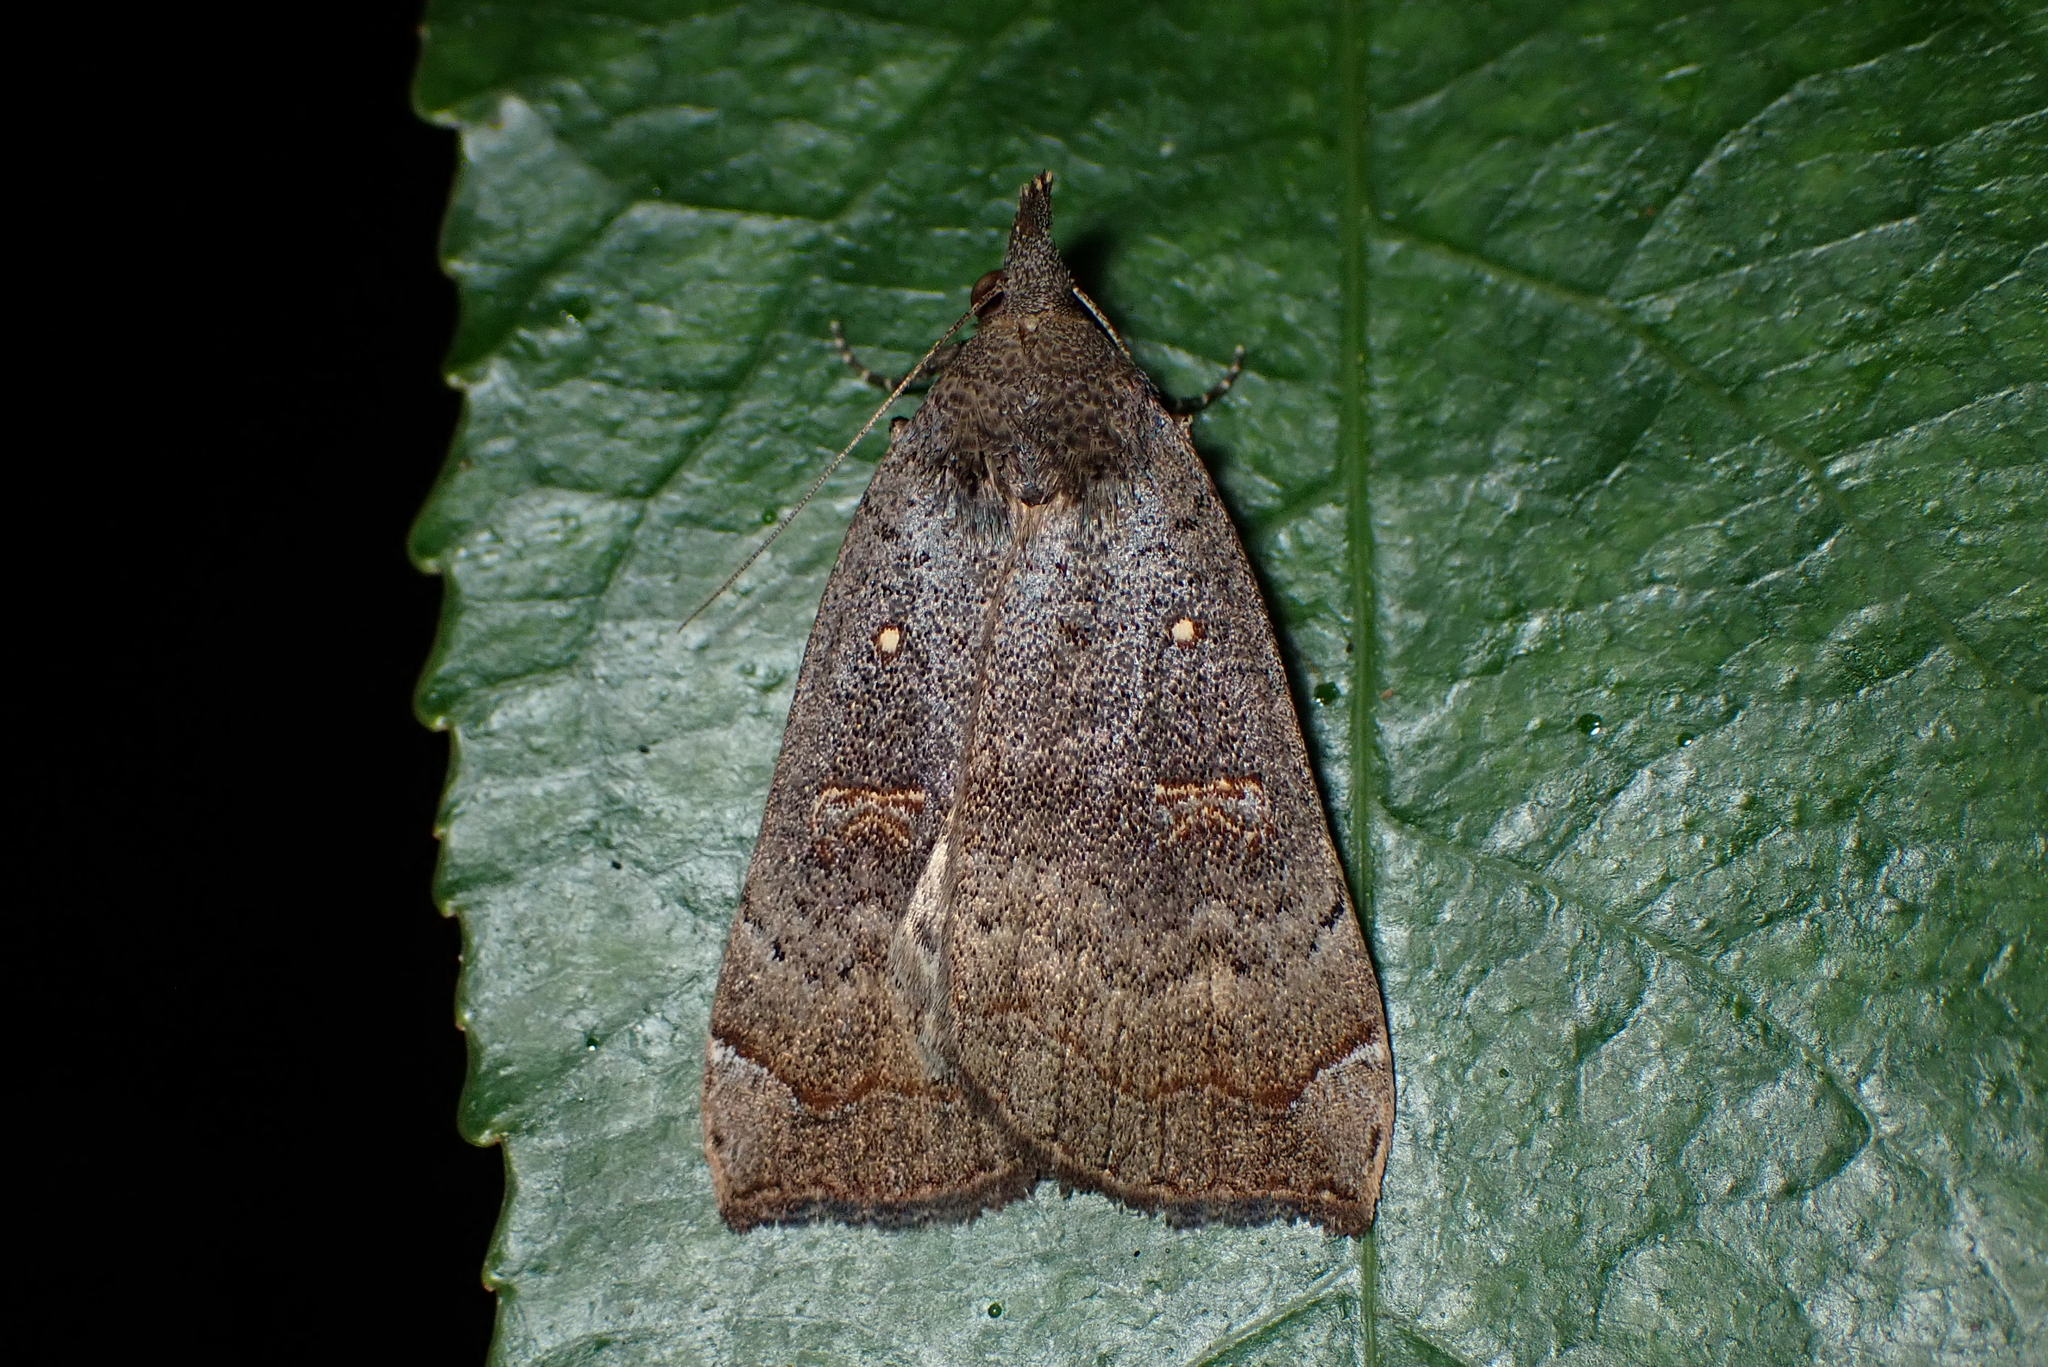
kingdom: Animalia
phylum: Arthropoda
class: Insecta
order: Lepidoptera
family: Erebidae
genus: Rhapsa
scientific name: Rhapsa scotosialis
